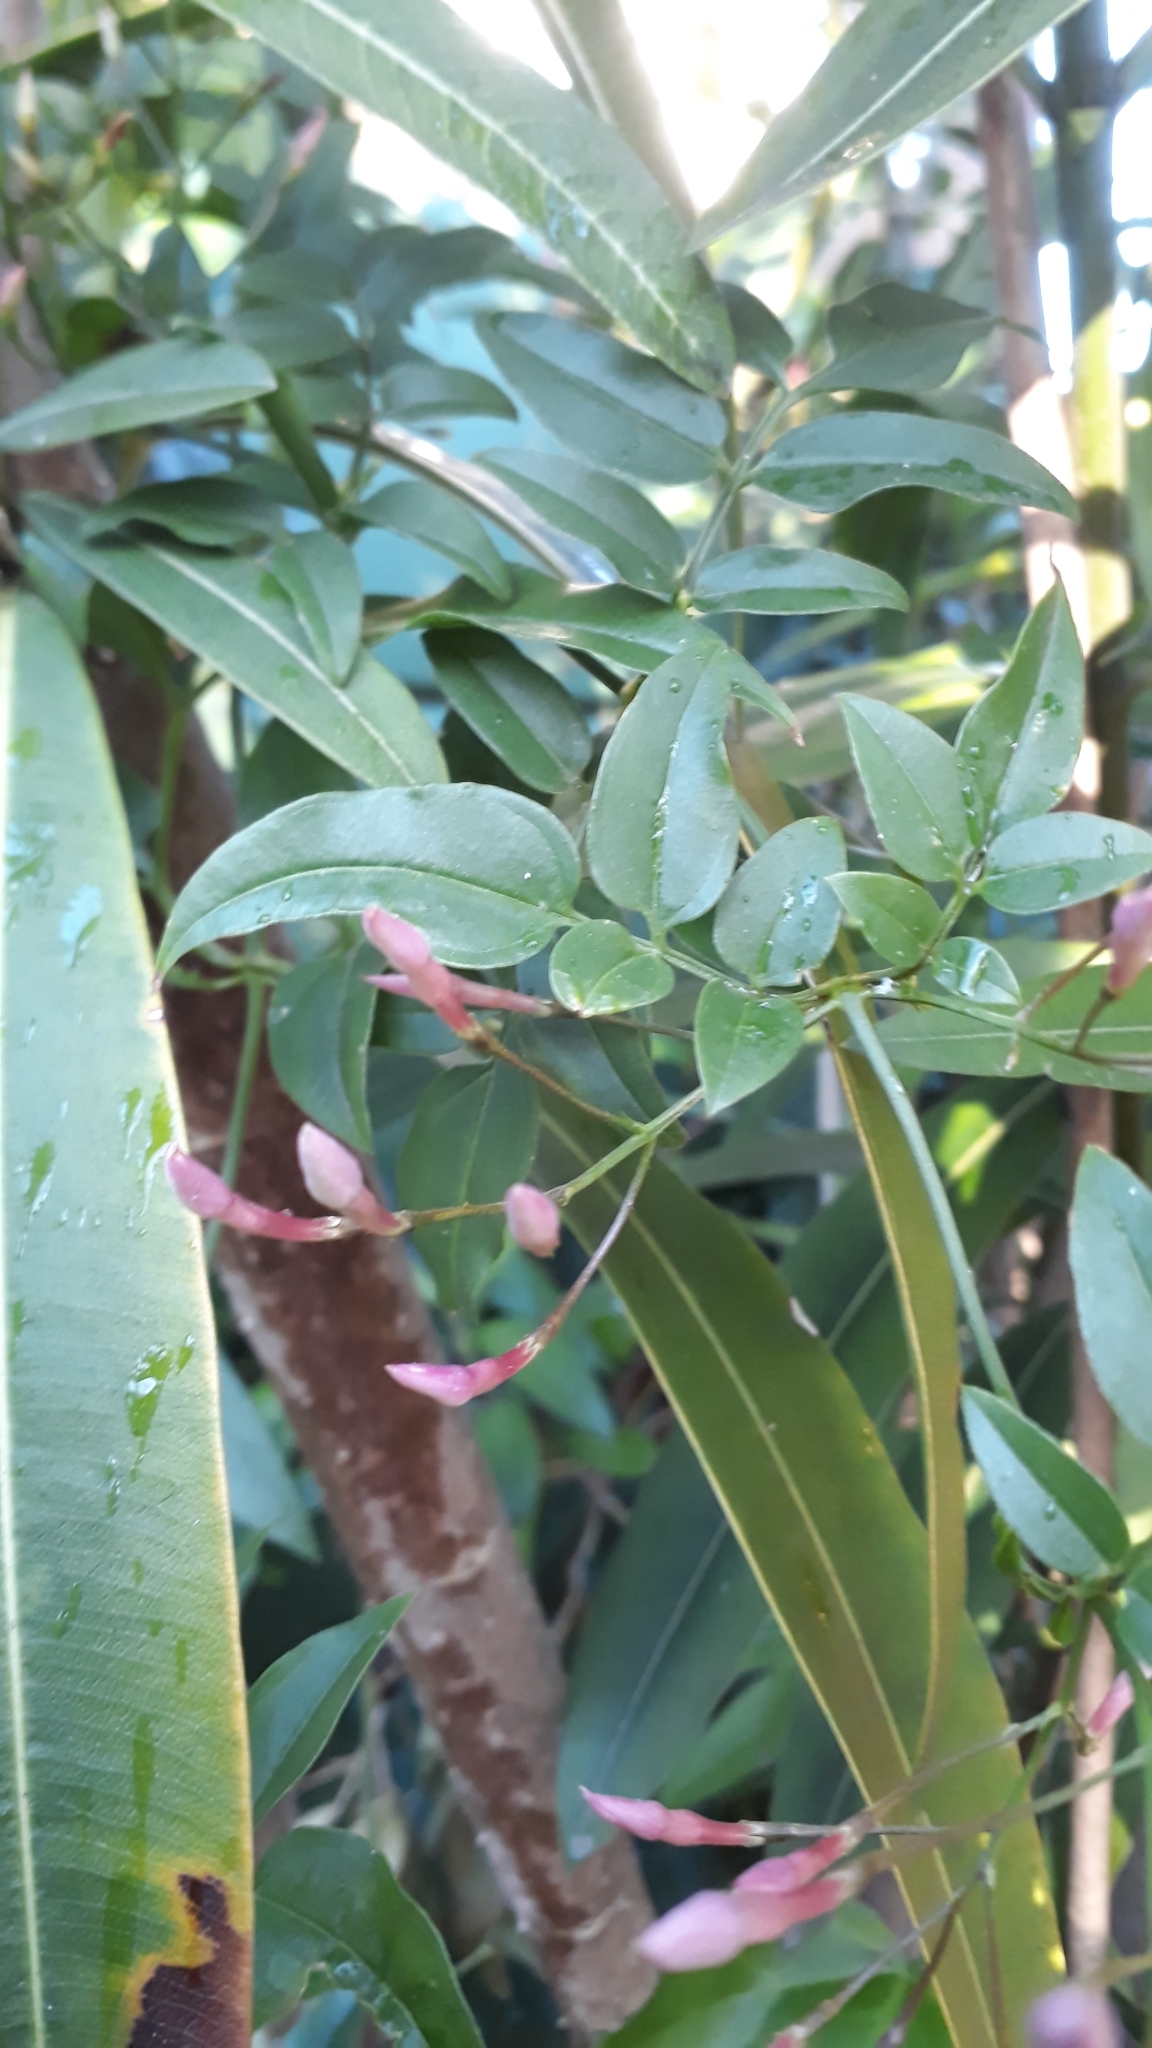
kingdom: Plantae
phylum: Tracheophyta
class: Magnoliopsida
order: Lamiales
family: Oleaceae
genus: Jasminum
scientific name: Jasminum polyanthum
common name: Pink jasmine
